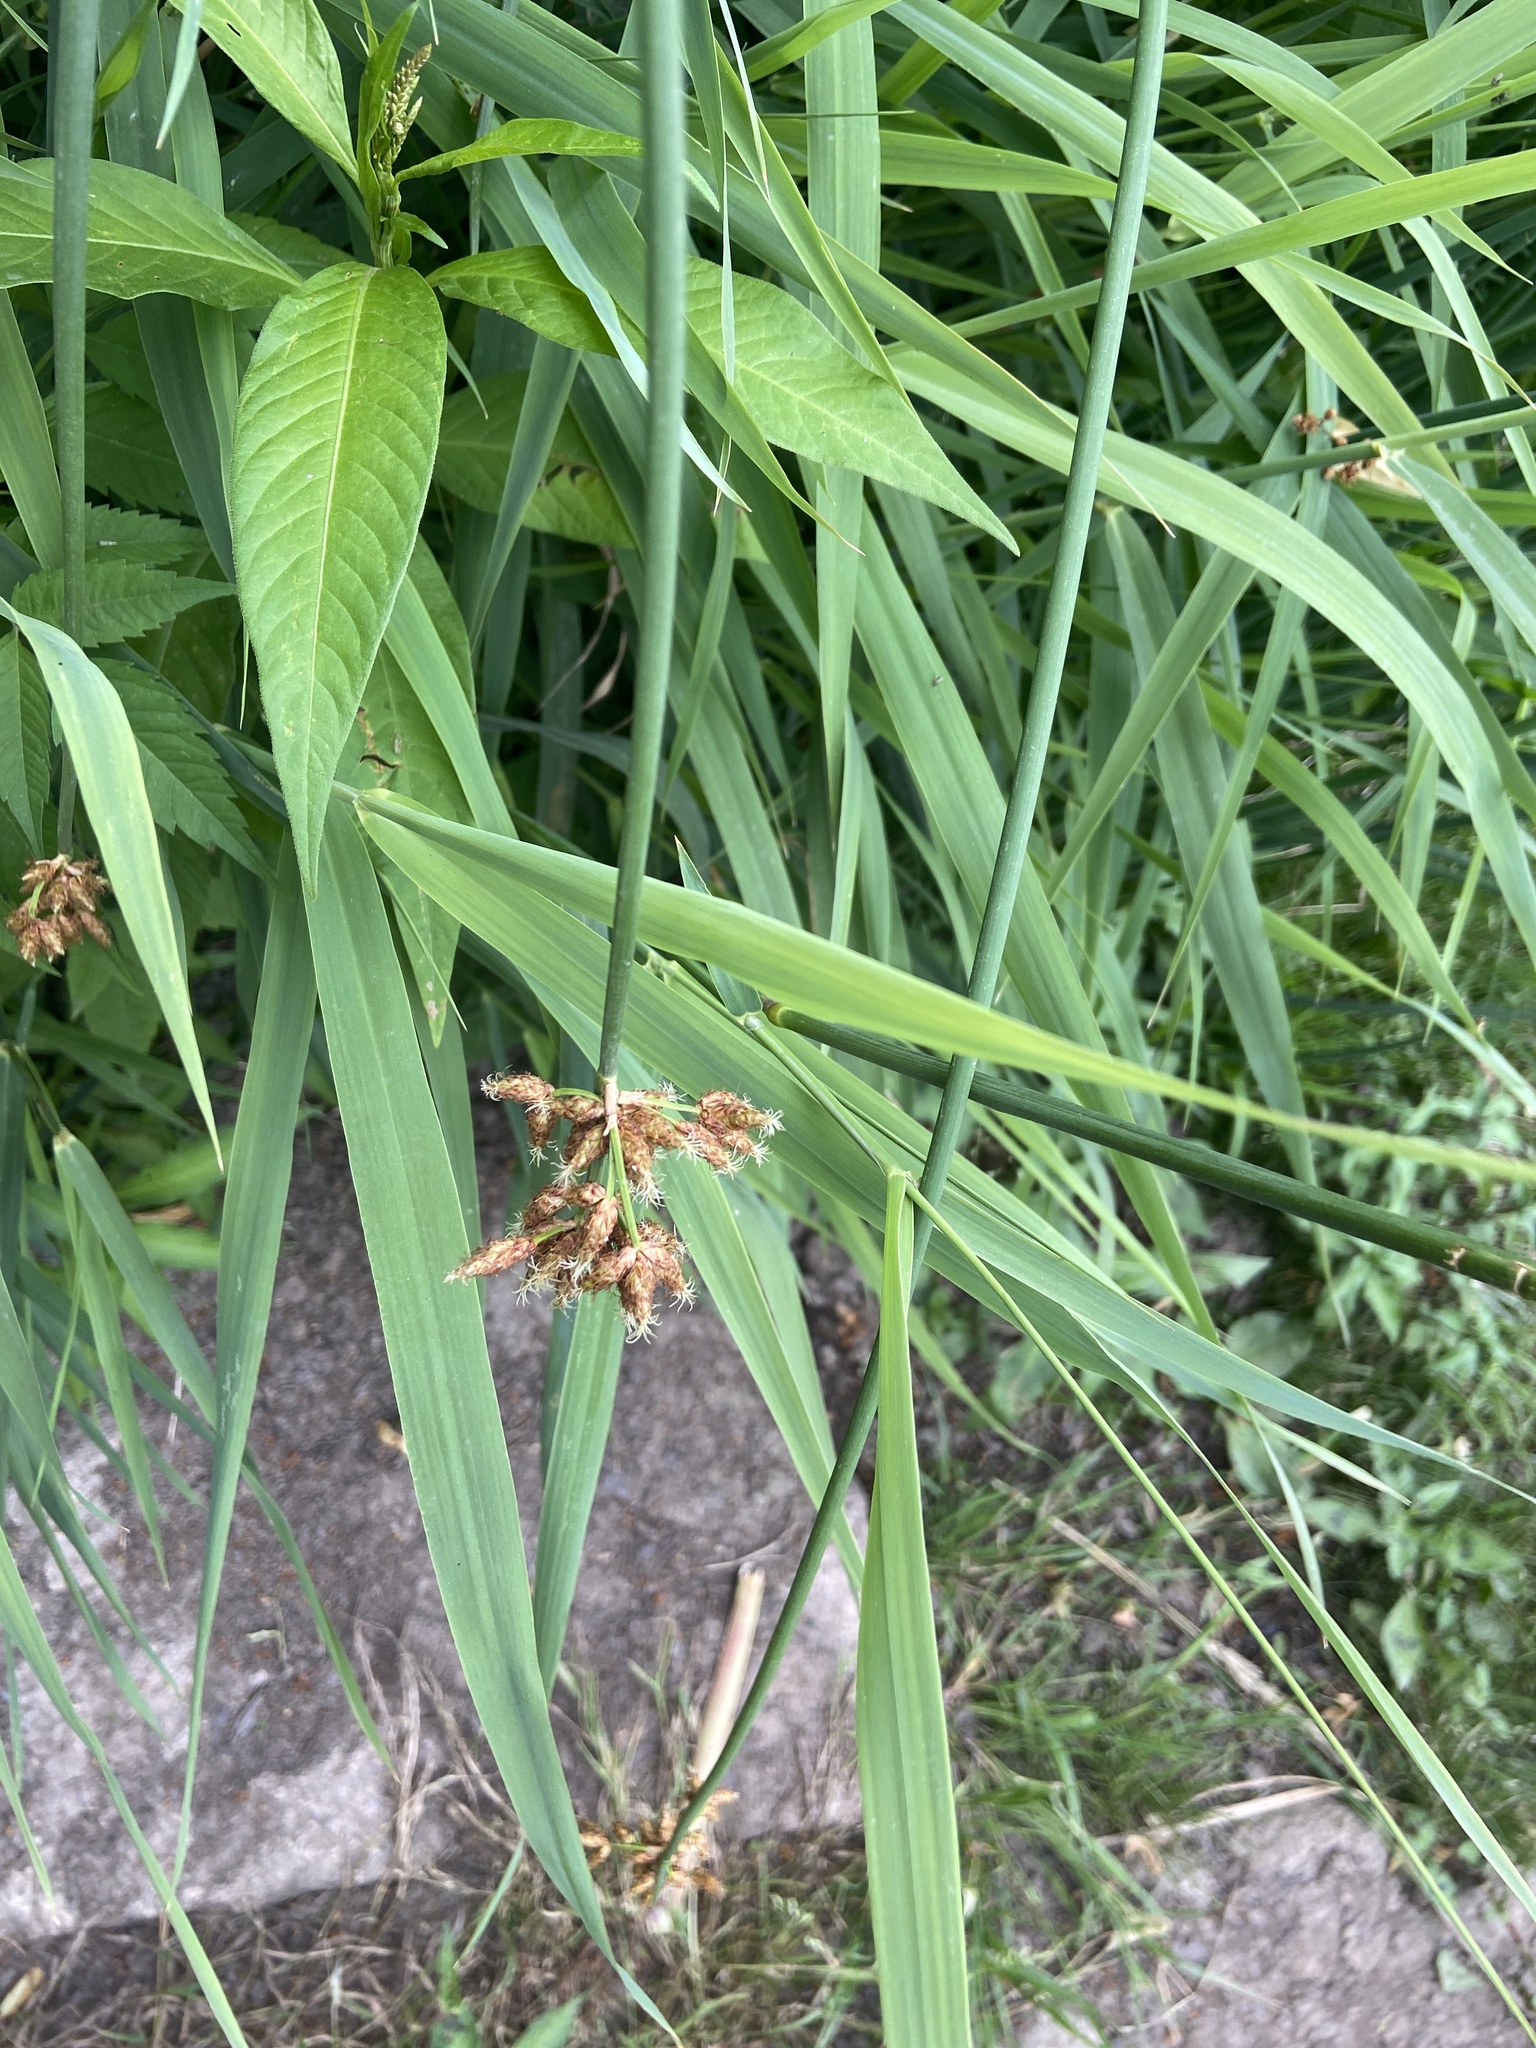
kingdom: Plantae
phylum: Tracheophyta
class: Liliopsida
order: Poales
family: Cyperaceae
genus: Schoenoplectus
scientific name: Schoenoplectus lacustris
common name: Common club-rush
